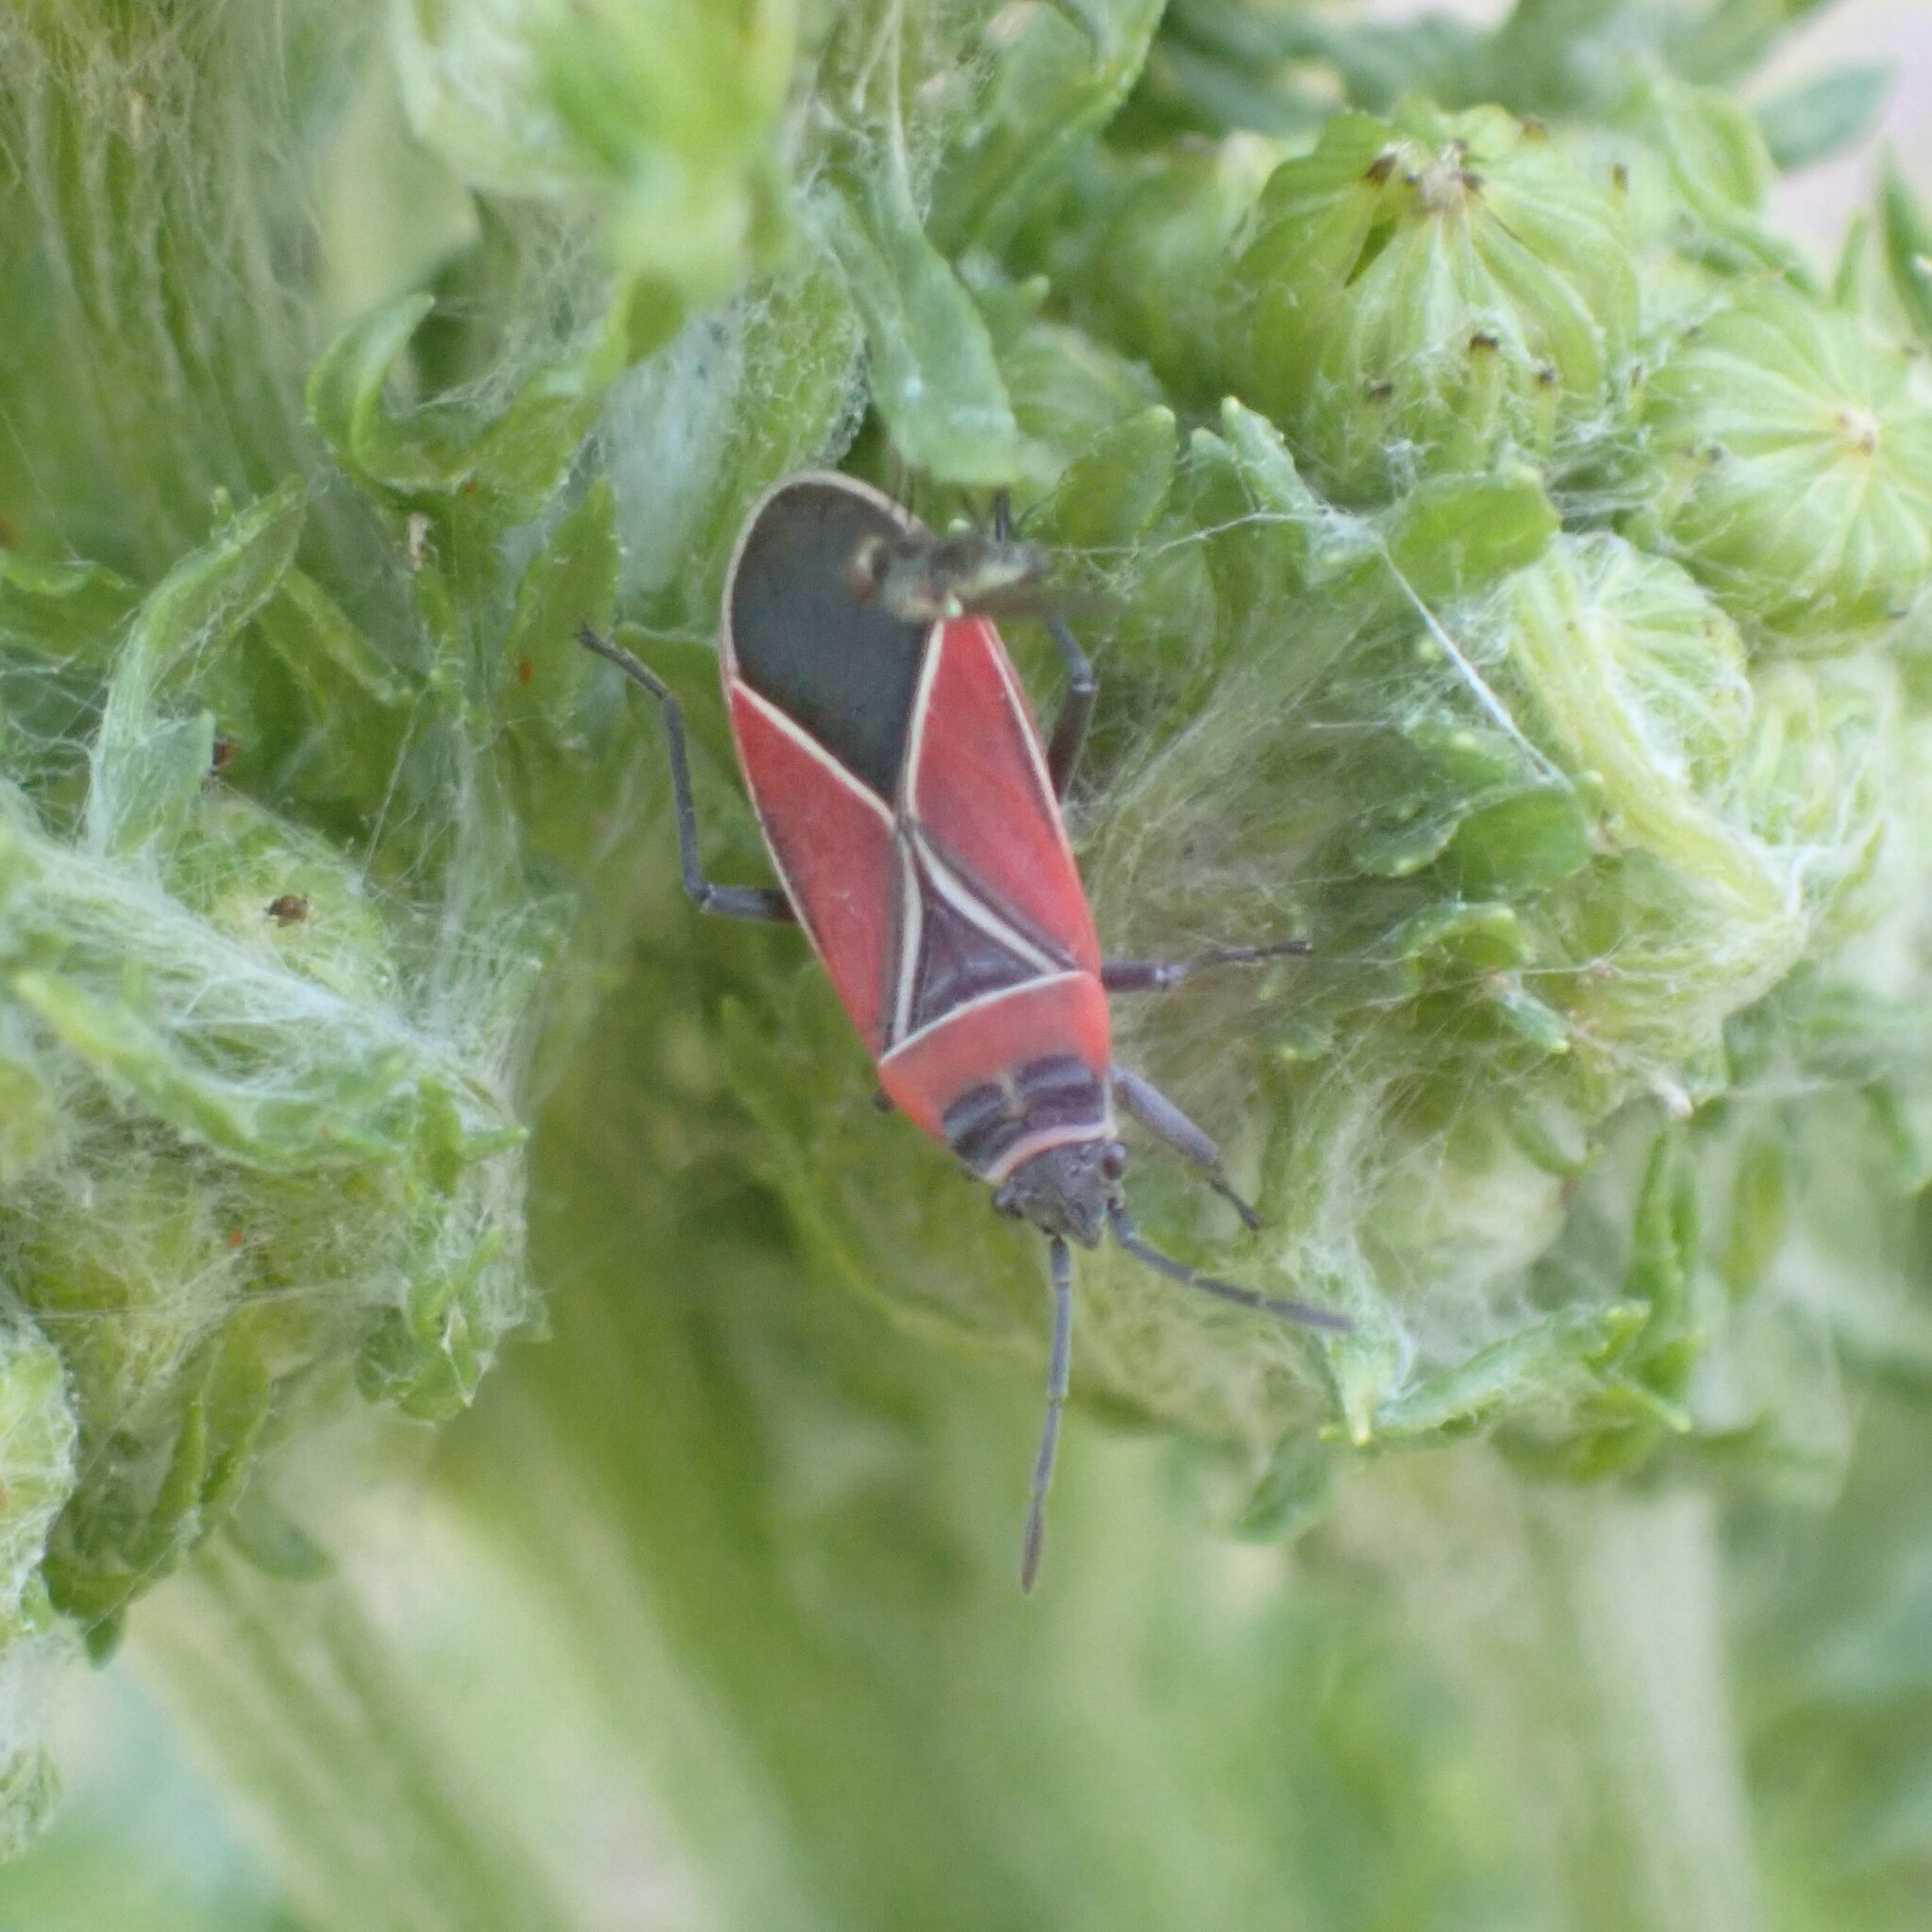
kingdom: Animalia
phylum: Arthropoda
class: Insecta
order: Hemiptera
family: Lygaeidae
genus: Neacoryphus
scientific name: Neacoryphus bicrucis
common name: Lygaeid bug
